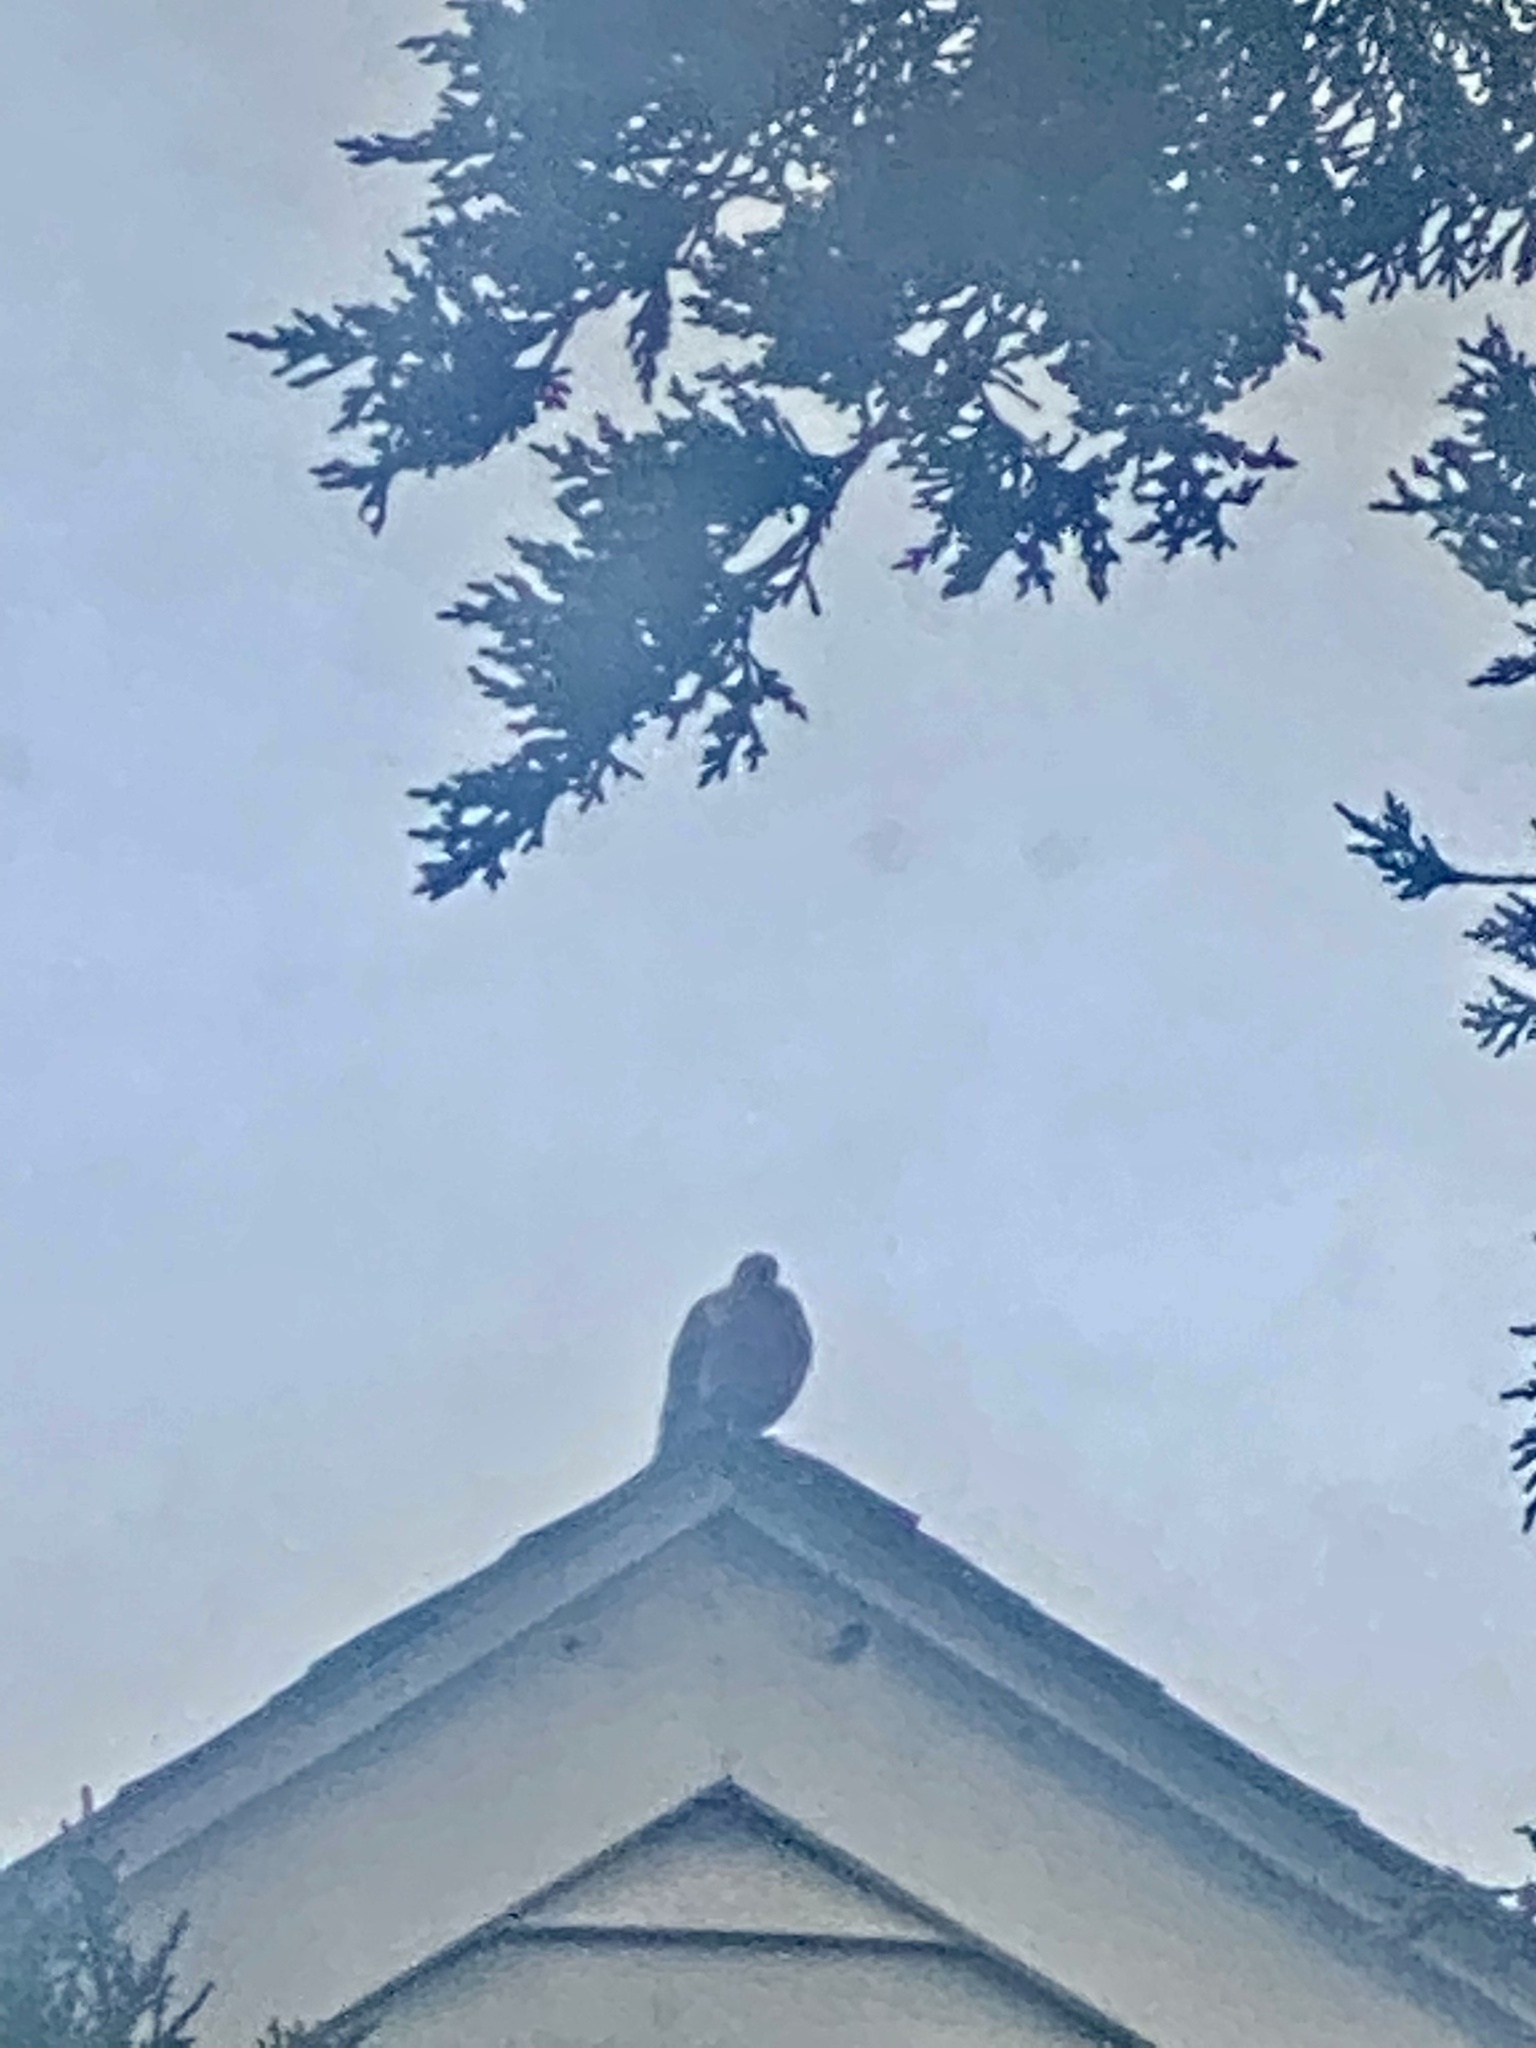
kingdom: Animalia
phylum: Chordata
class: Aves
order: Columbiformes
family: Columbidae
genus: Zenaida
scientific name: Zenaida macroura
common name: Mourning dove
